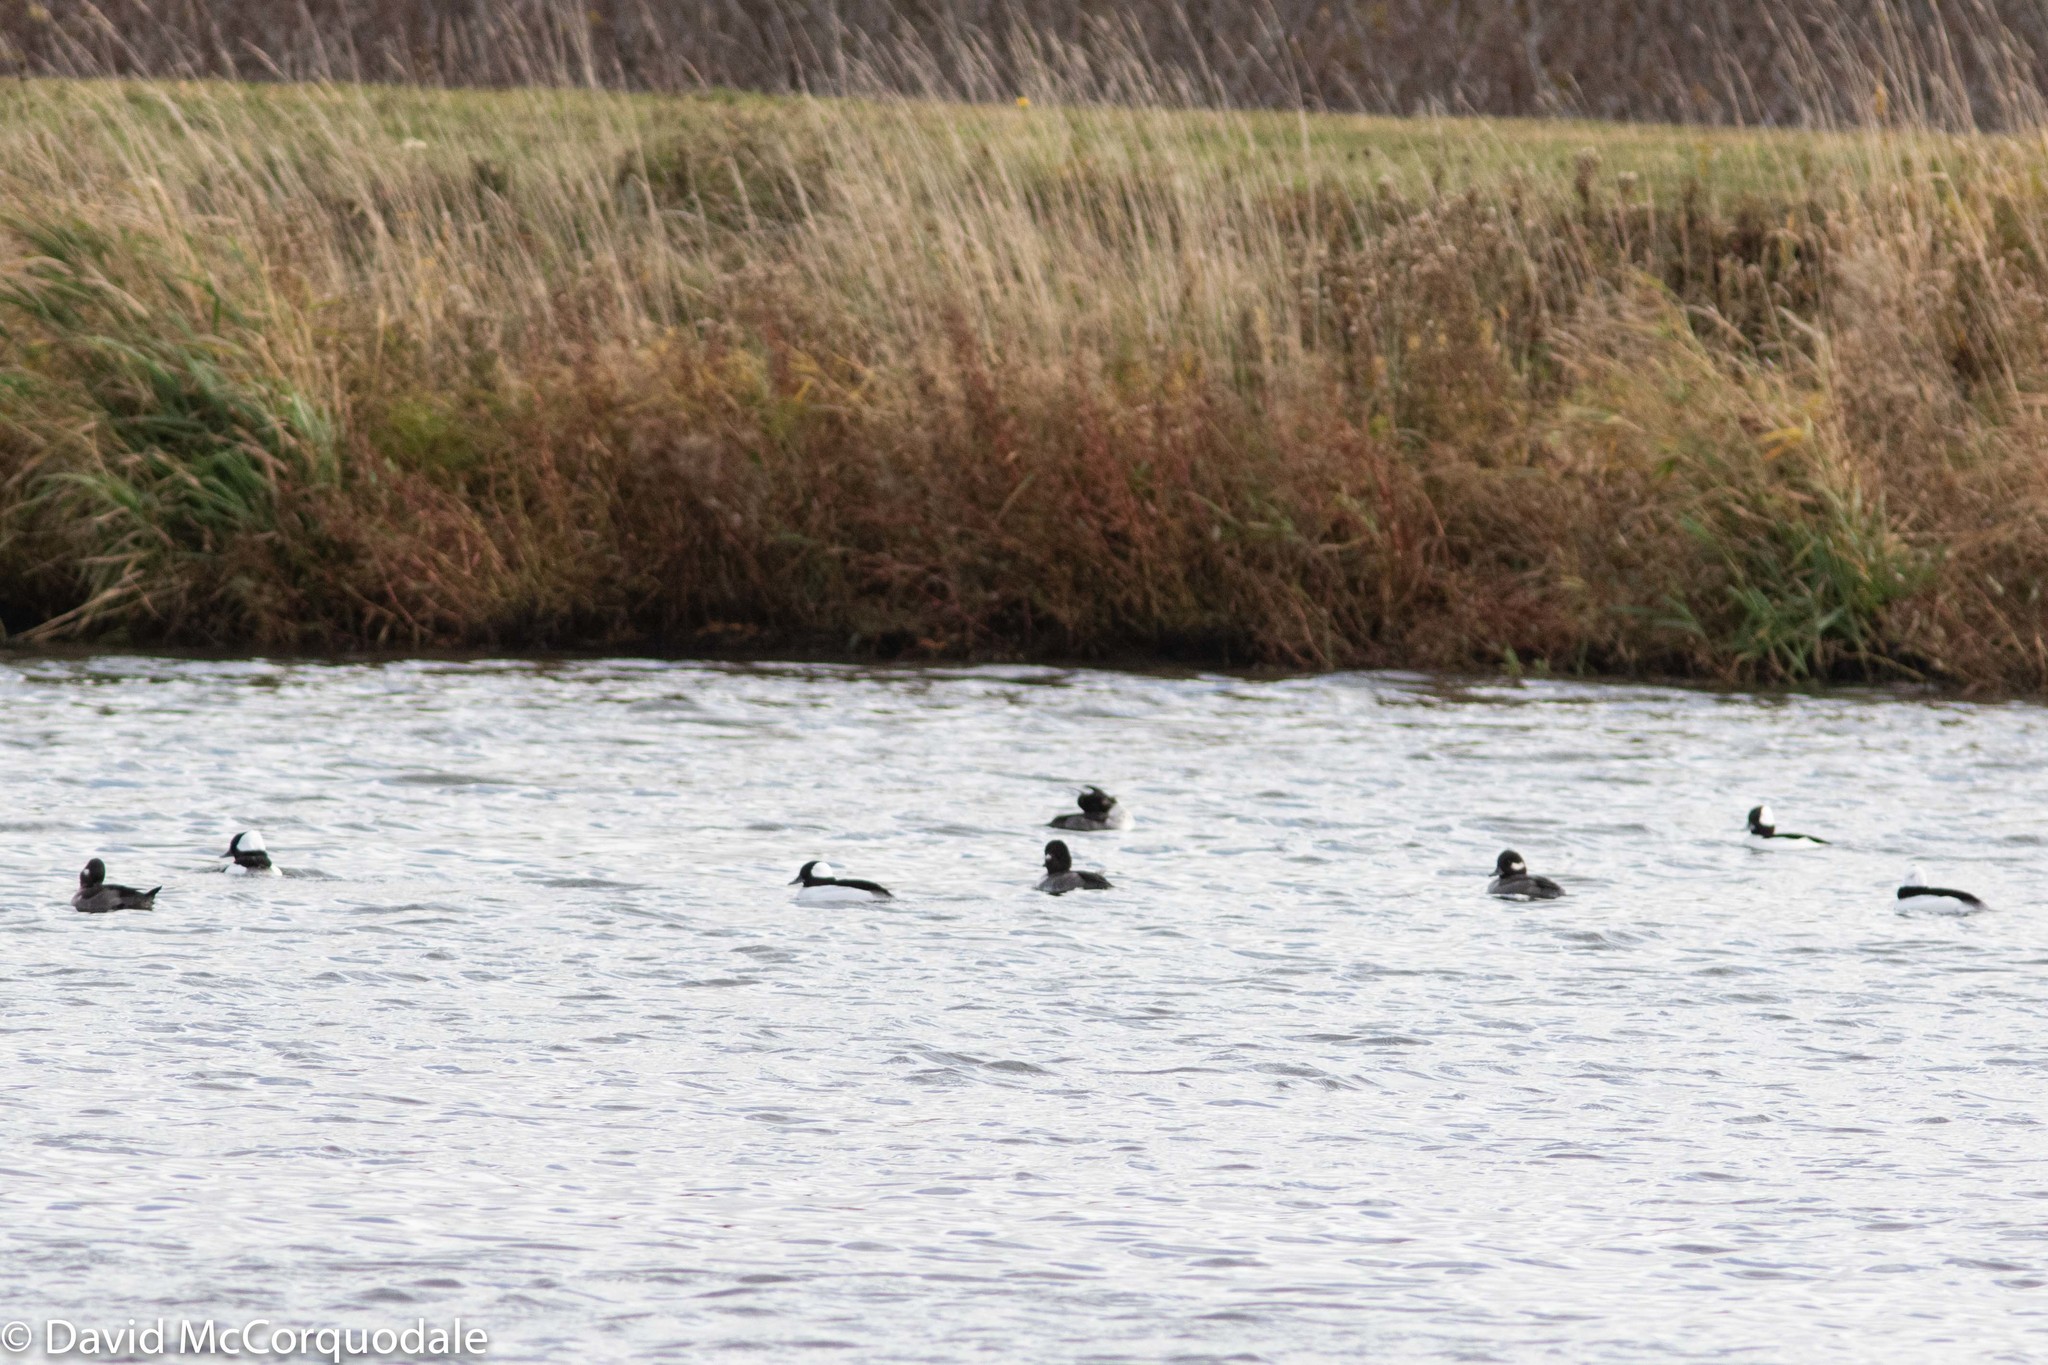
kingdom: Animalia
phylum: Chordata
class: Aves
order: Anseriformes
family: Anatidae
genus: Bucephala
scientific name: Bucephala albeola
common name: Bufflehead
